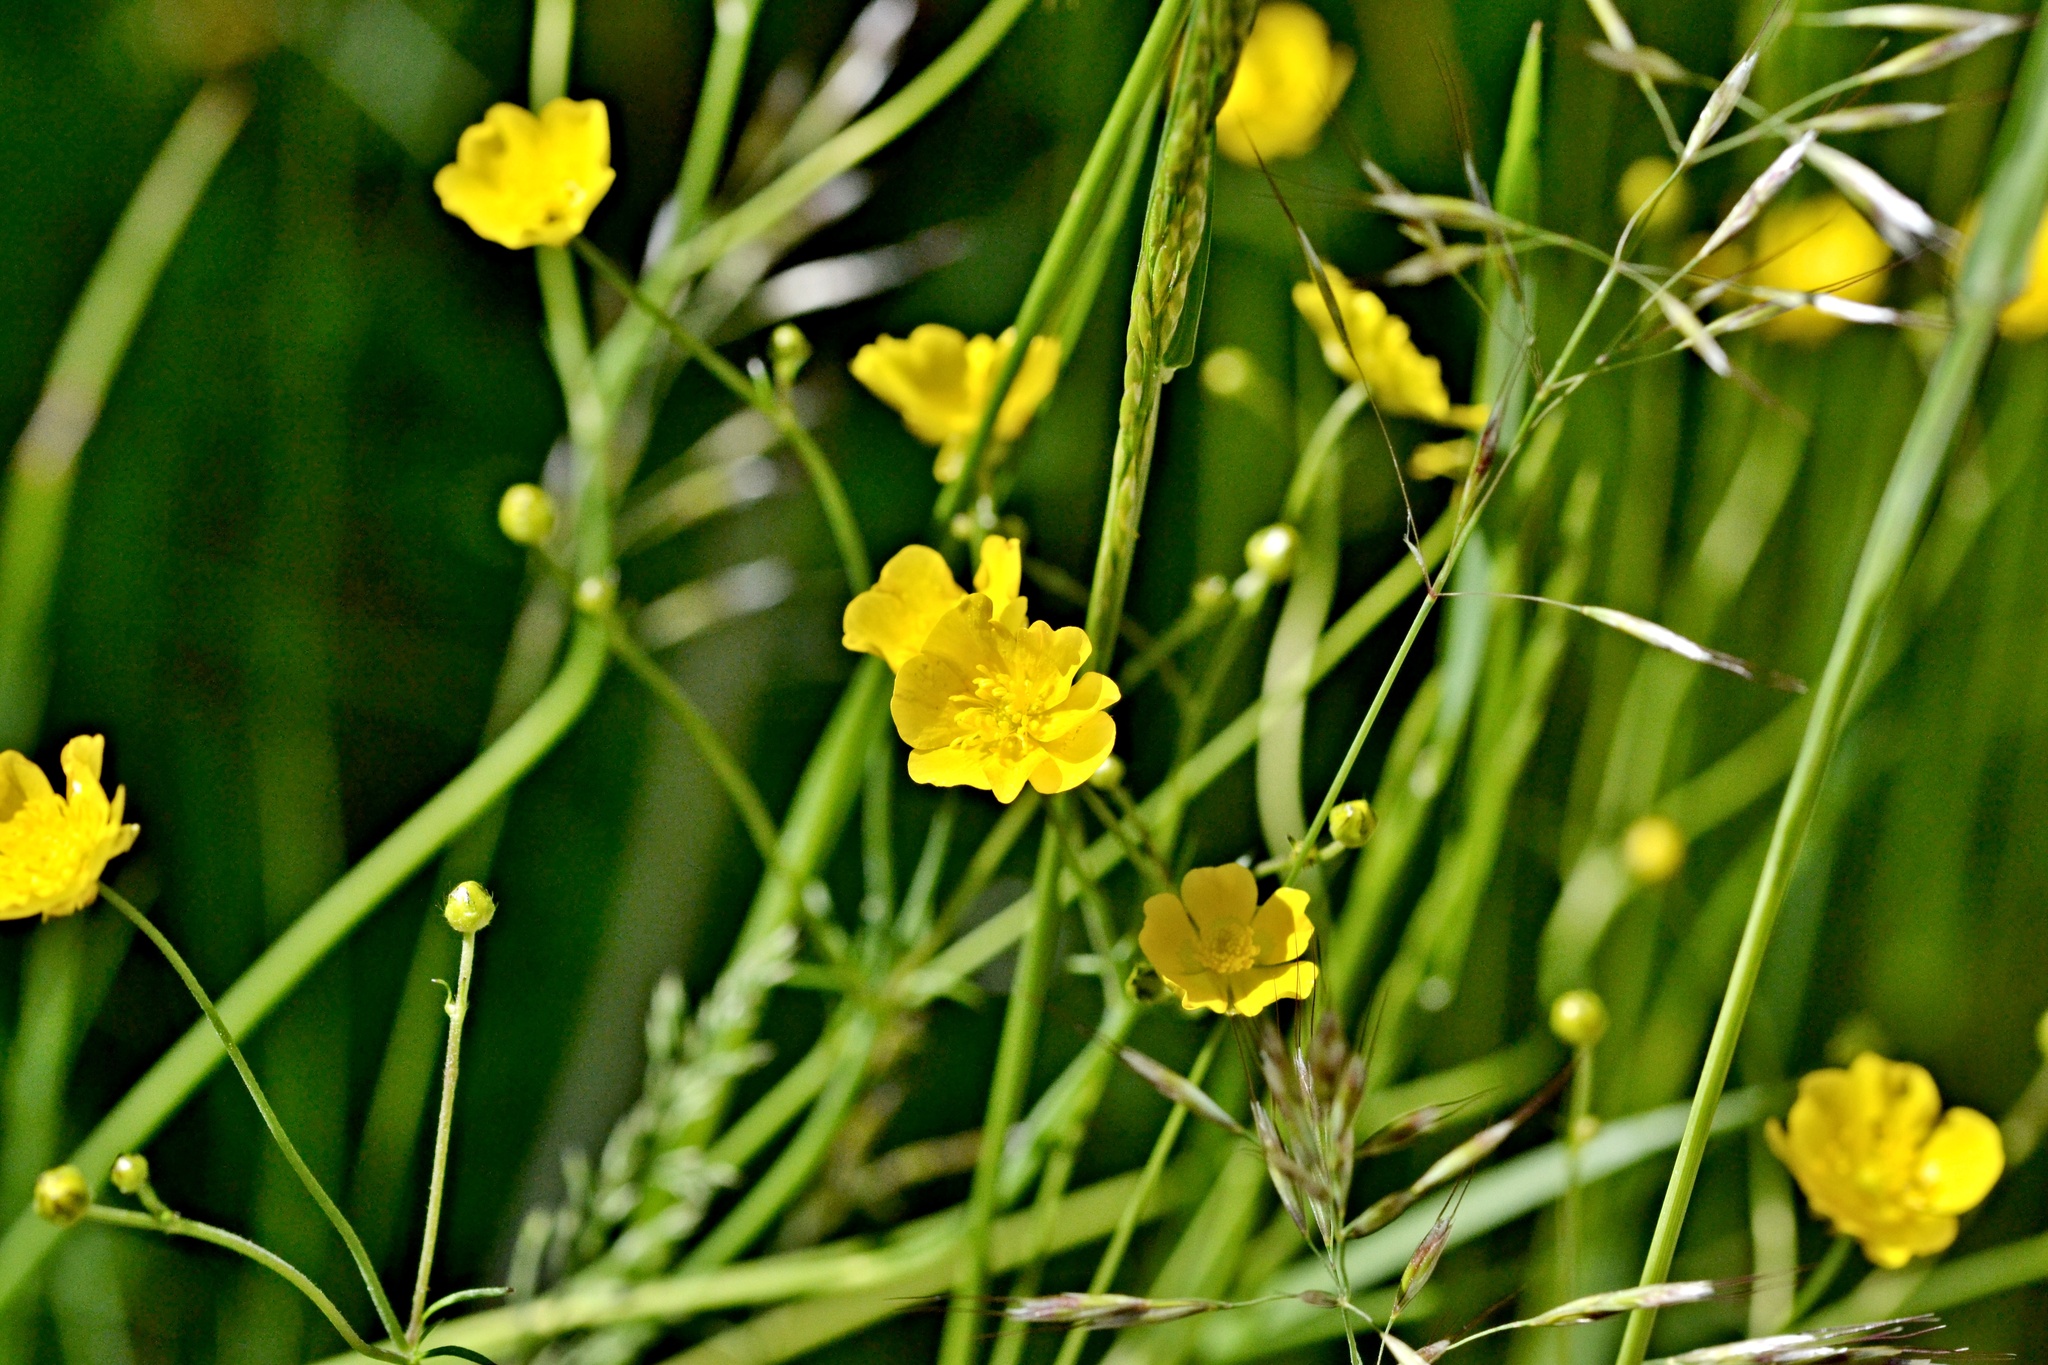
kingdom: Plantae
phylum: Tracheophyta
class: Magnoliopsida
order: Ranunculales
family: Ranunculaceae
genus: Ranunculus
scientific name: Ranunculus acris
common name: Meadow buttercup
